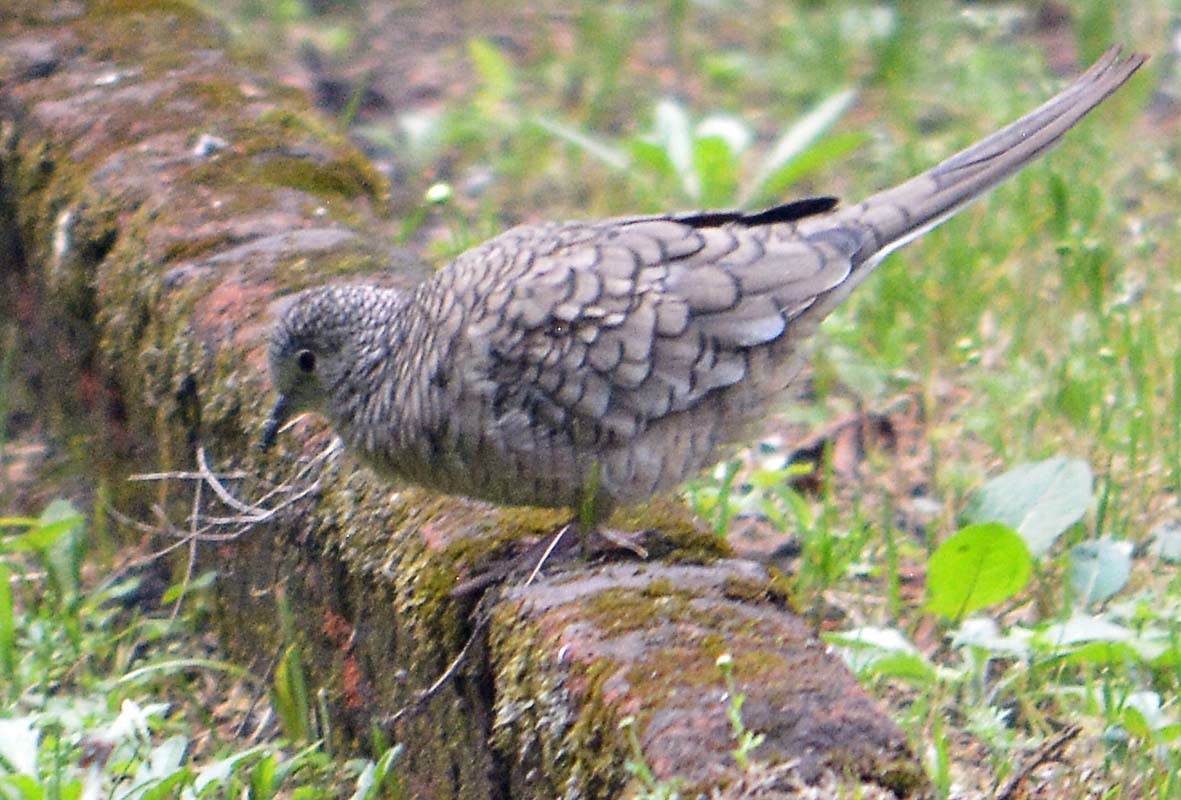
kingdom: Animalia
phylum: Chordata
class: Aves
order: Columbiformes
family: Columbidae
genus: Columbina
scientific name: Columbina inca
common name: Inca dove
